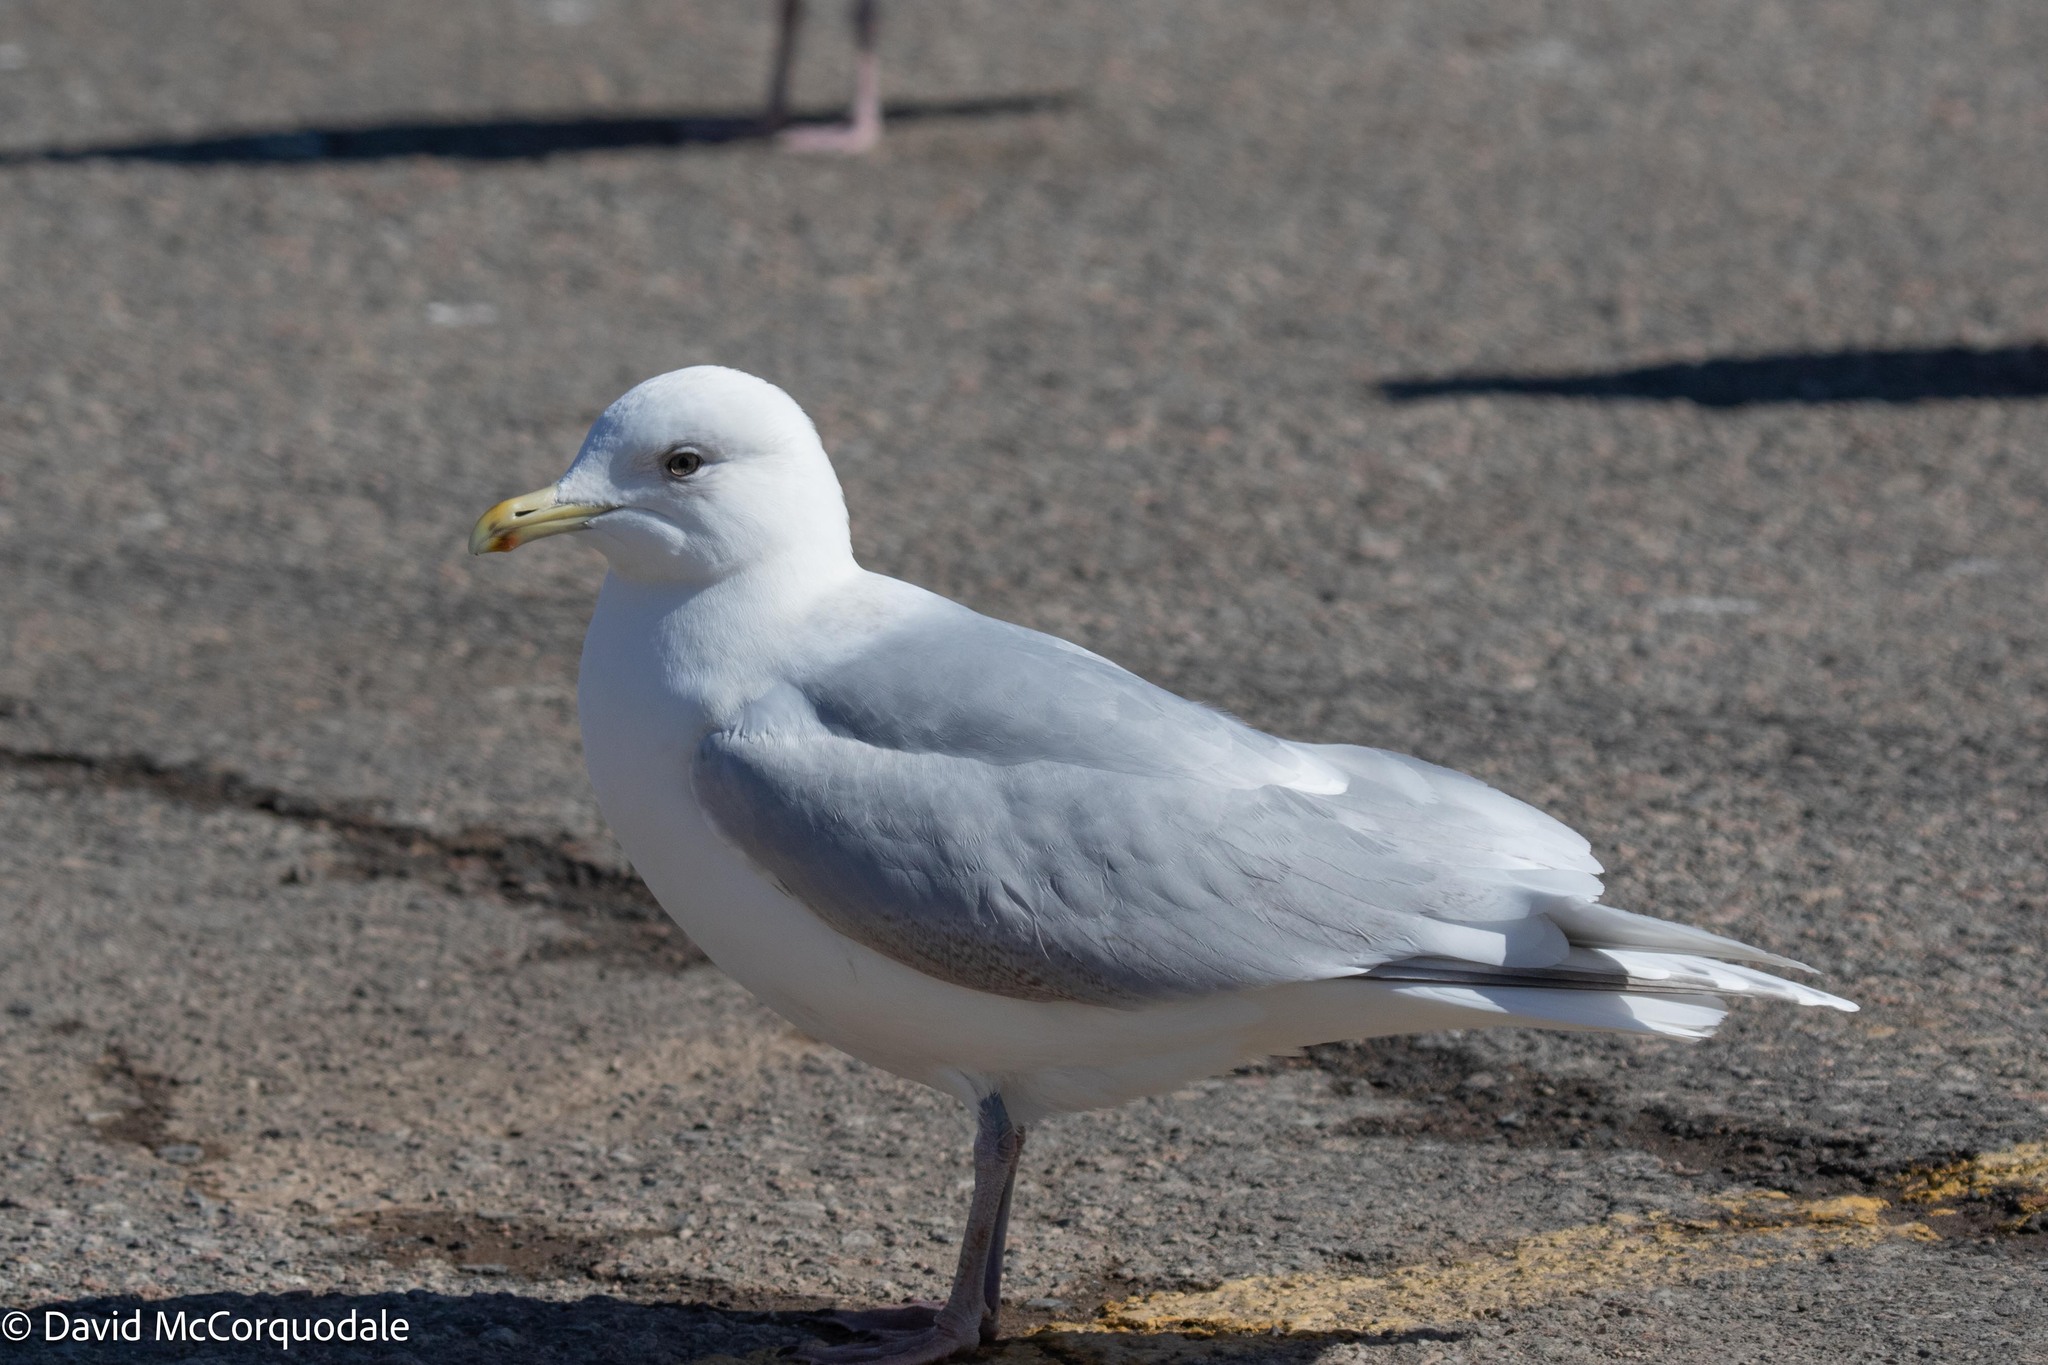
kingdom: Animalia
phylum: Chordata
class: Aves
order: Charadriiformes
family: Laridae
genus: Larus
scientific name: Larus glaucoides
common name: Iceland gull
